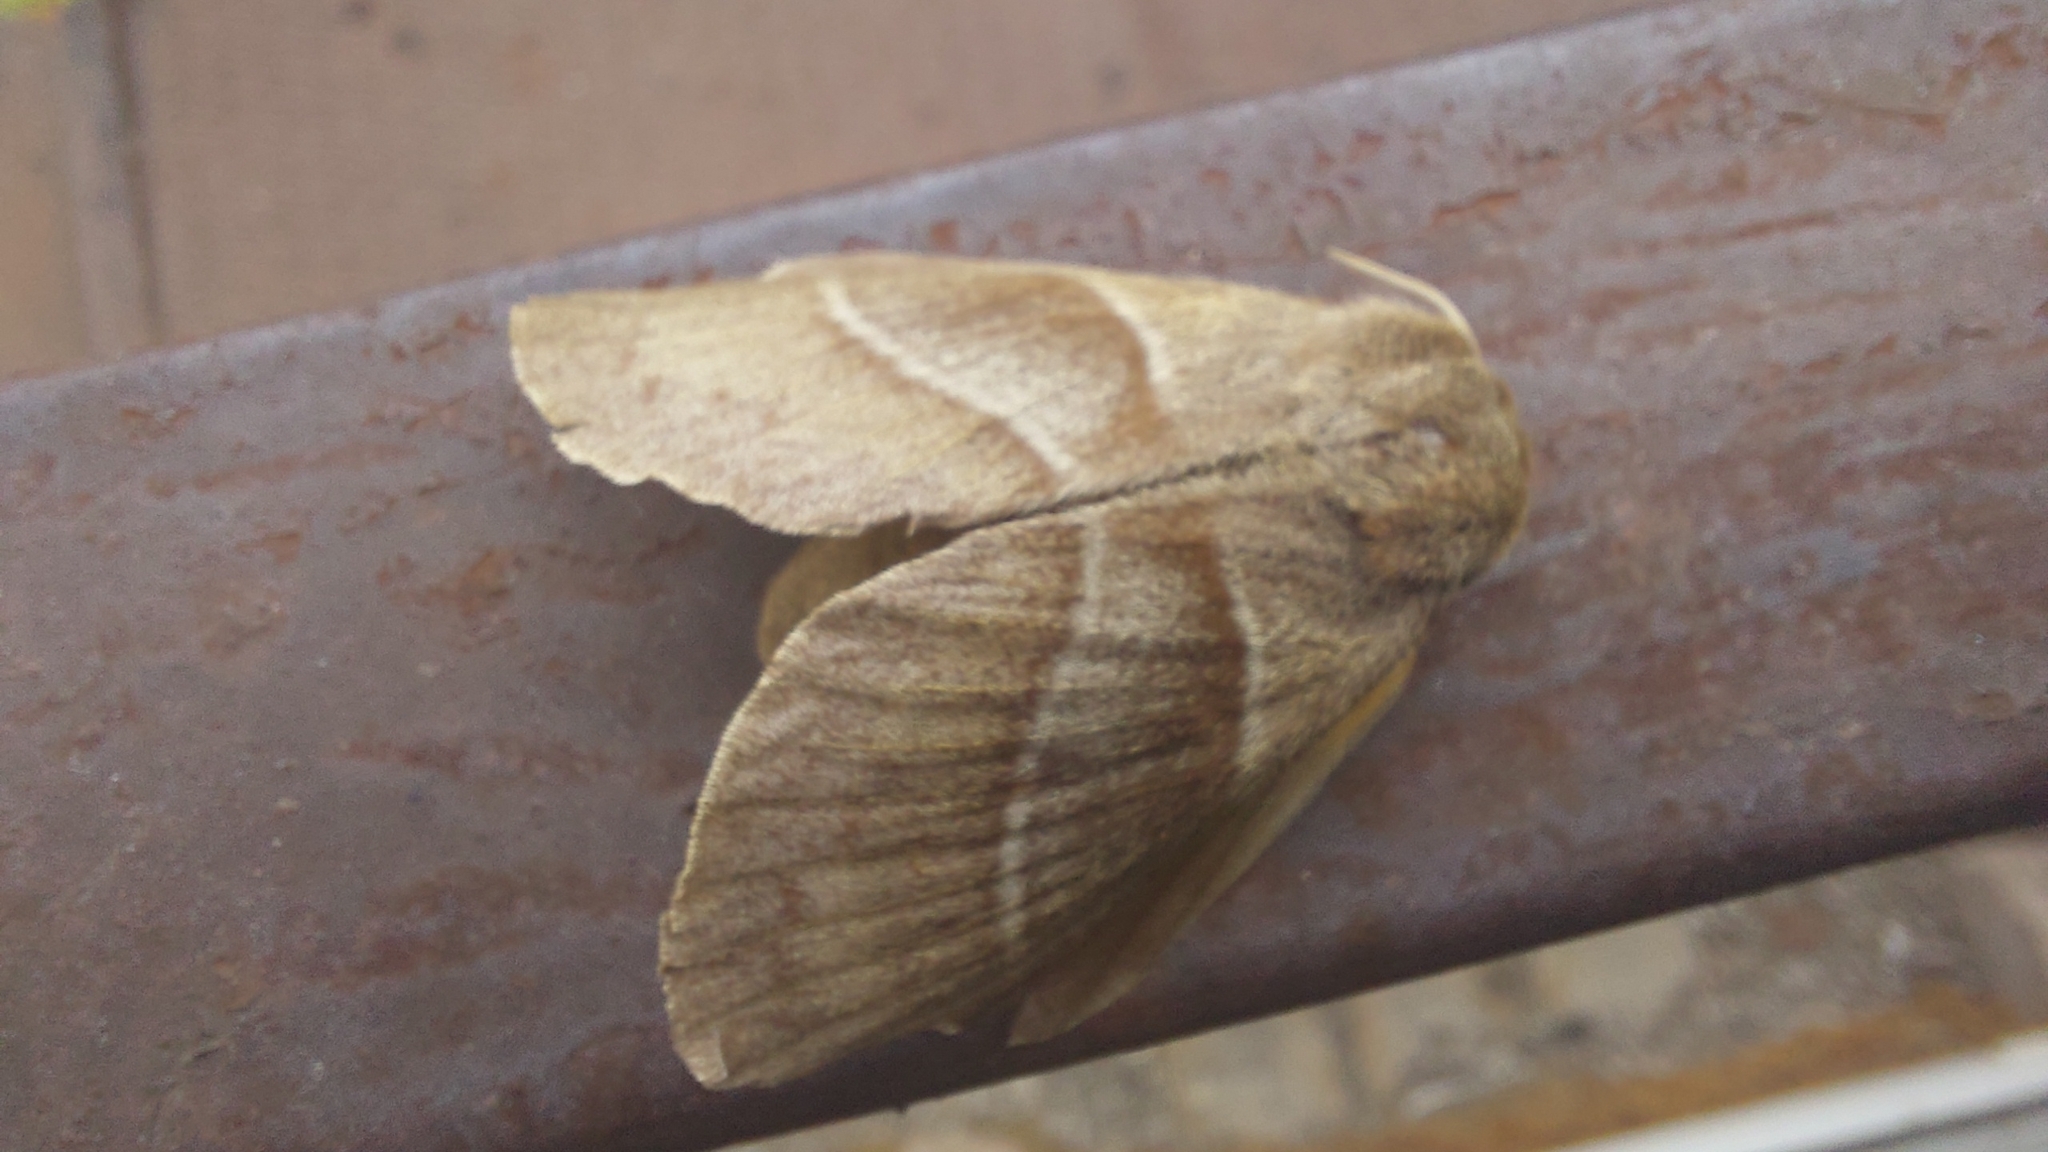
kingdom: Animalia
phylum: Arthropoda
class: Insecta
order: Lepidoptera
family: Lasiocampidae
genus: Macrothylacia
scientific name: Macrothylacia rubi
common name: Fox moth
